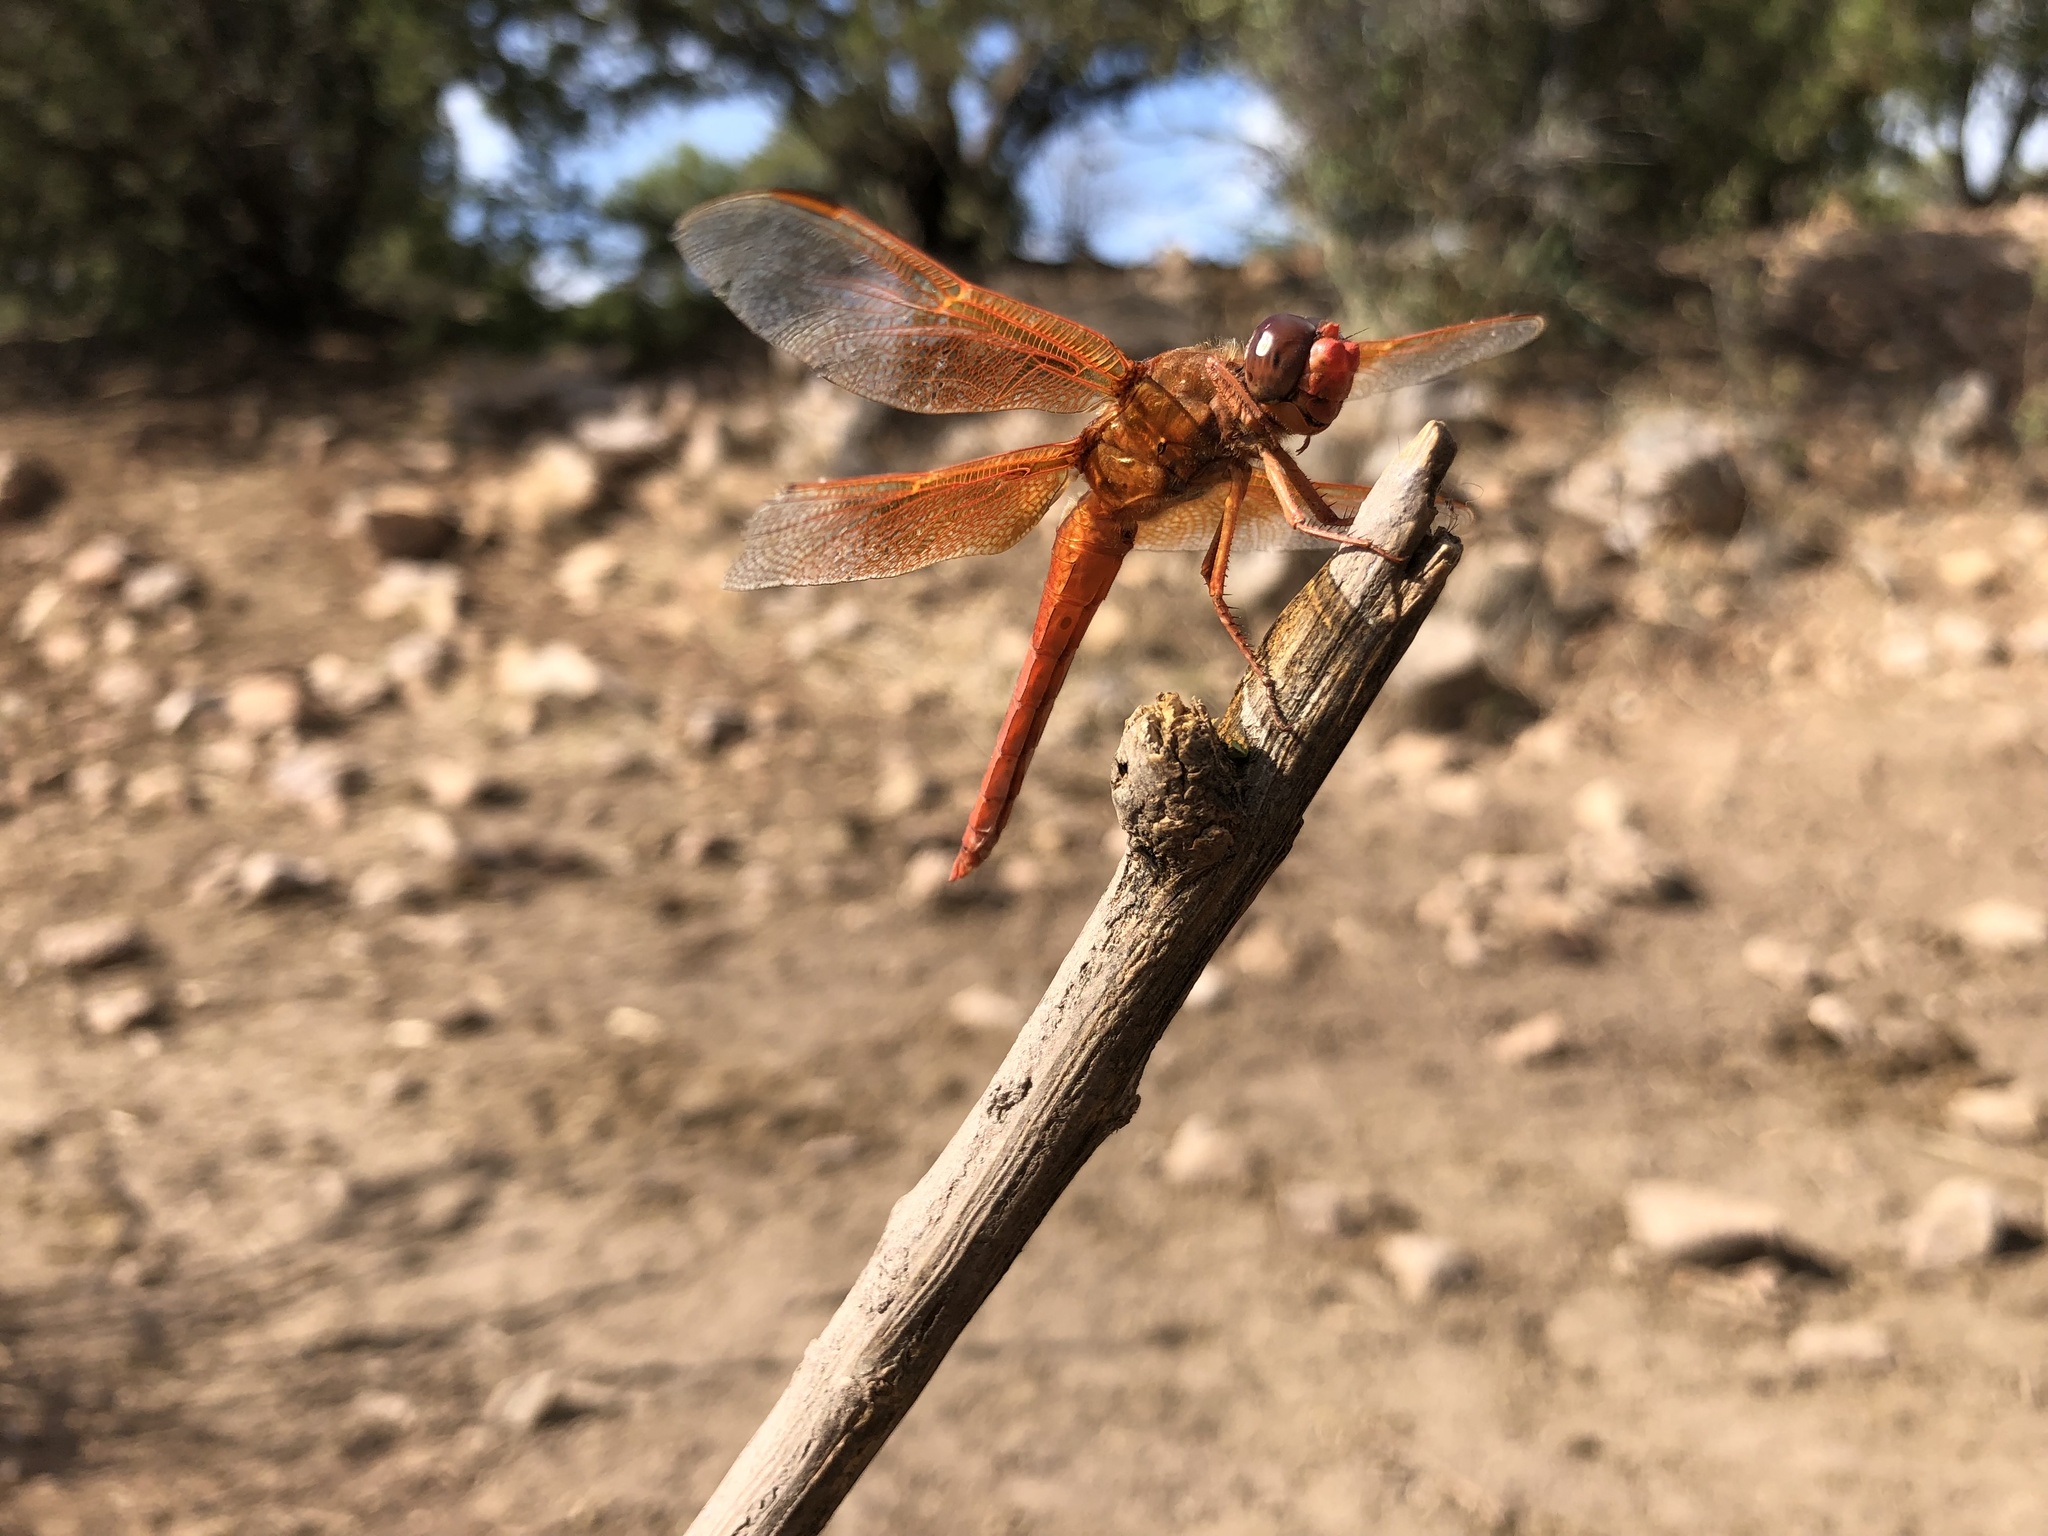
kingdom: Animalia
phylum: Arthropoda
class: Insecta
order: Odonata
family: Libellulidae
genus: Libellula
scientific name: Libellula saturata
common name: Flame skimmer
